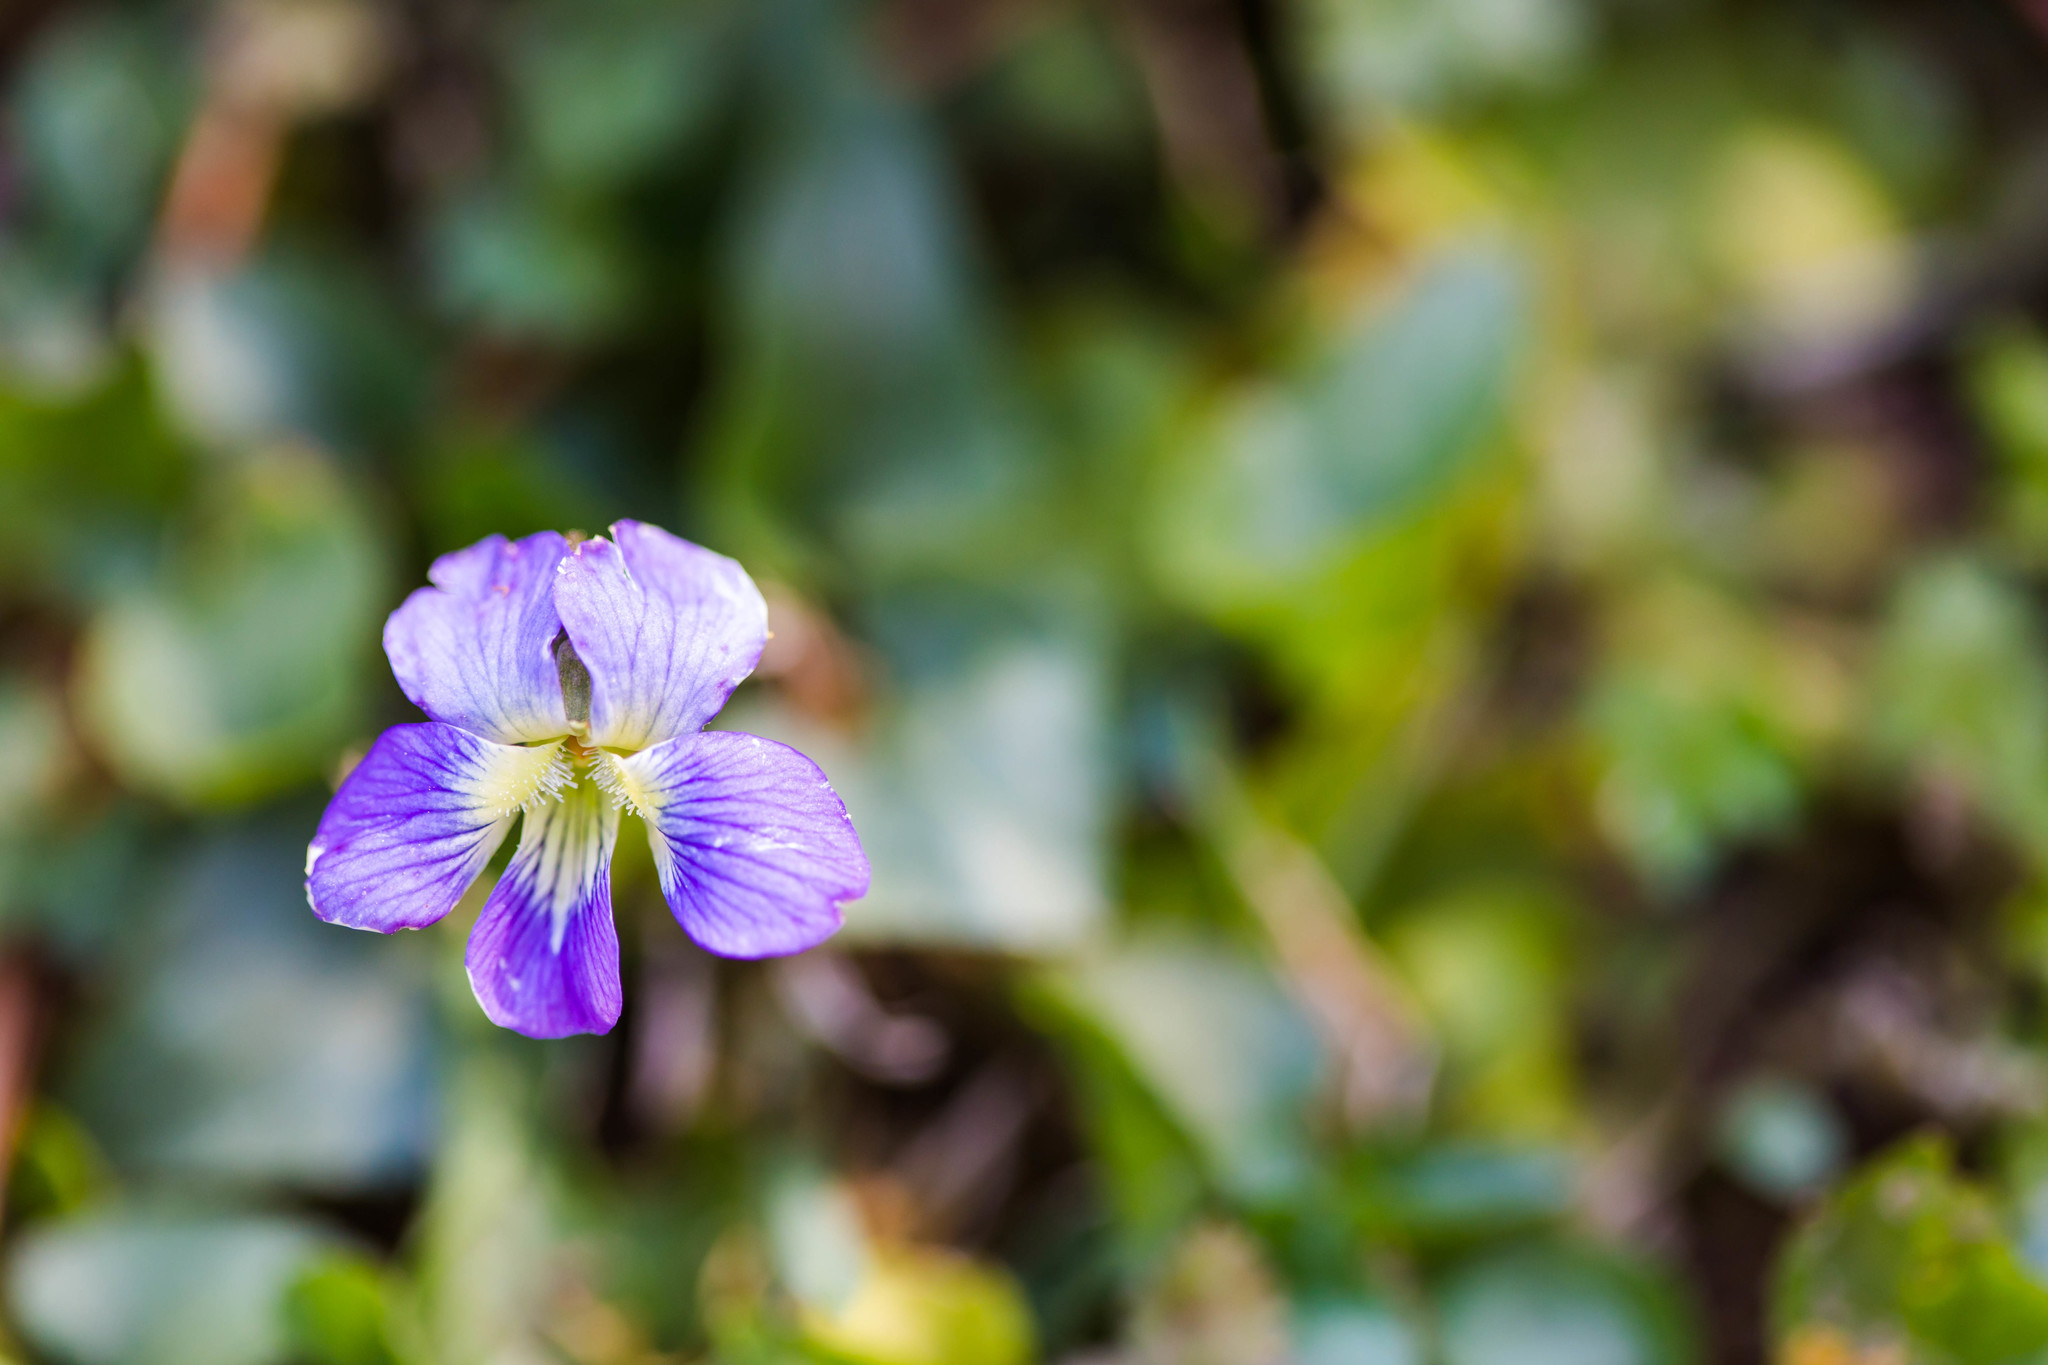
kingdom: Plantae
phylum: Tracheophyta
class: Magnoliopsida
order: Malpighiales
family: Violaceae
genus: Viola
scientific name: Viola sororia
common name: Dooryard violet
